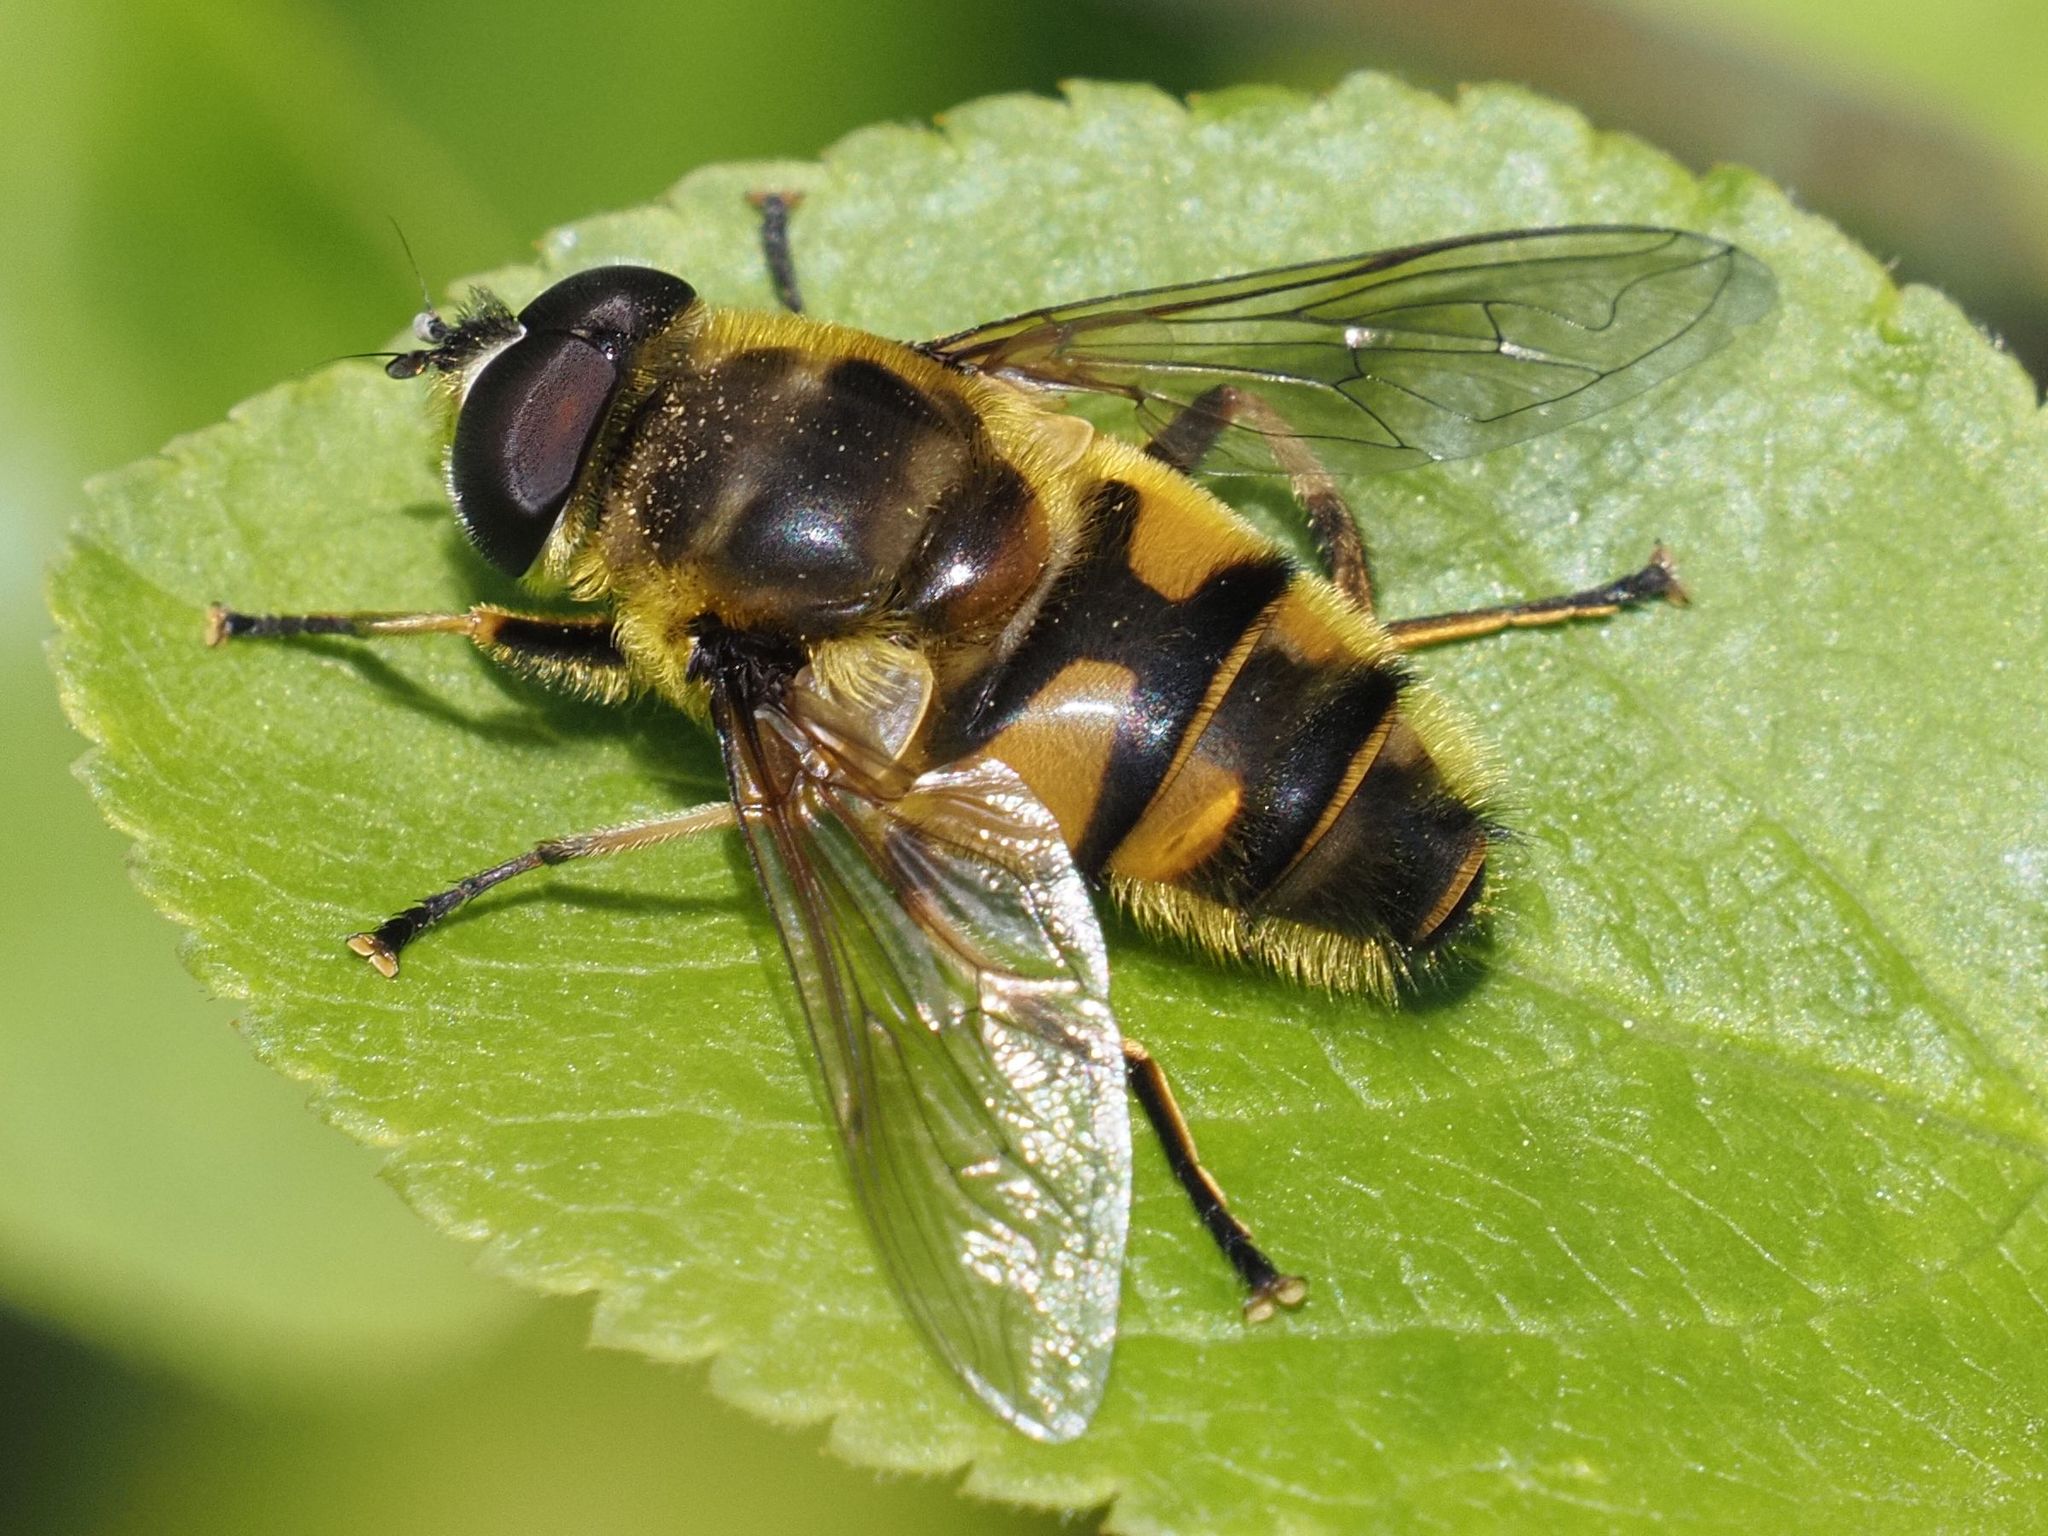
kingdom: Animalia
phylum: Arthropoda
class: Insecta
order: Diptera
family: Syrphidae
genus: Myathropa
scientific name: Myathropa florea
